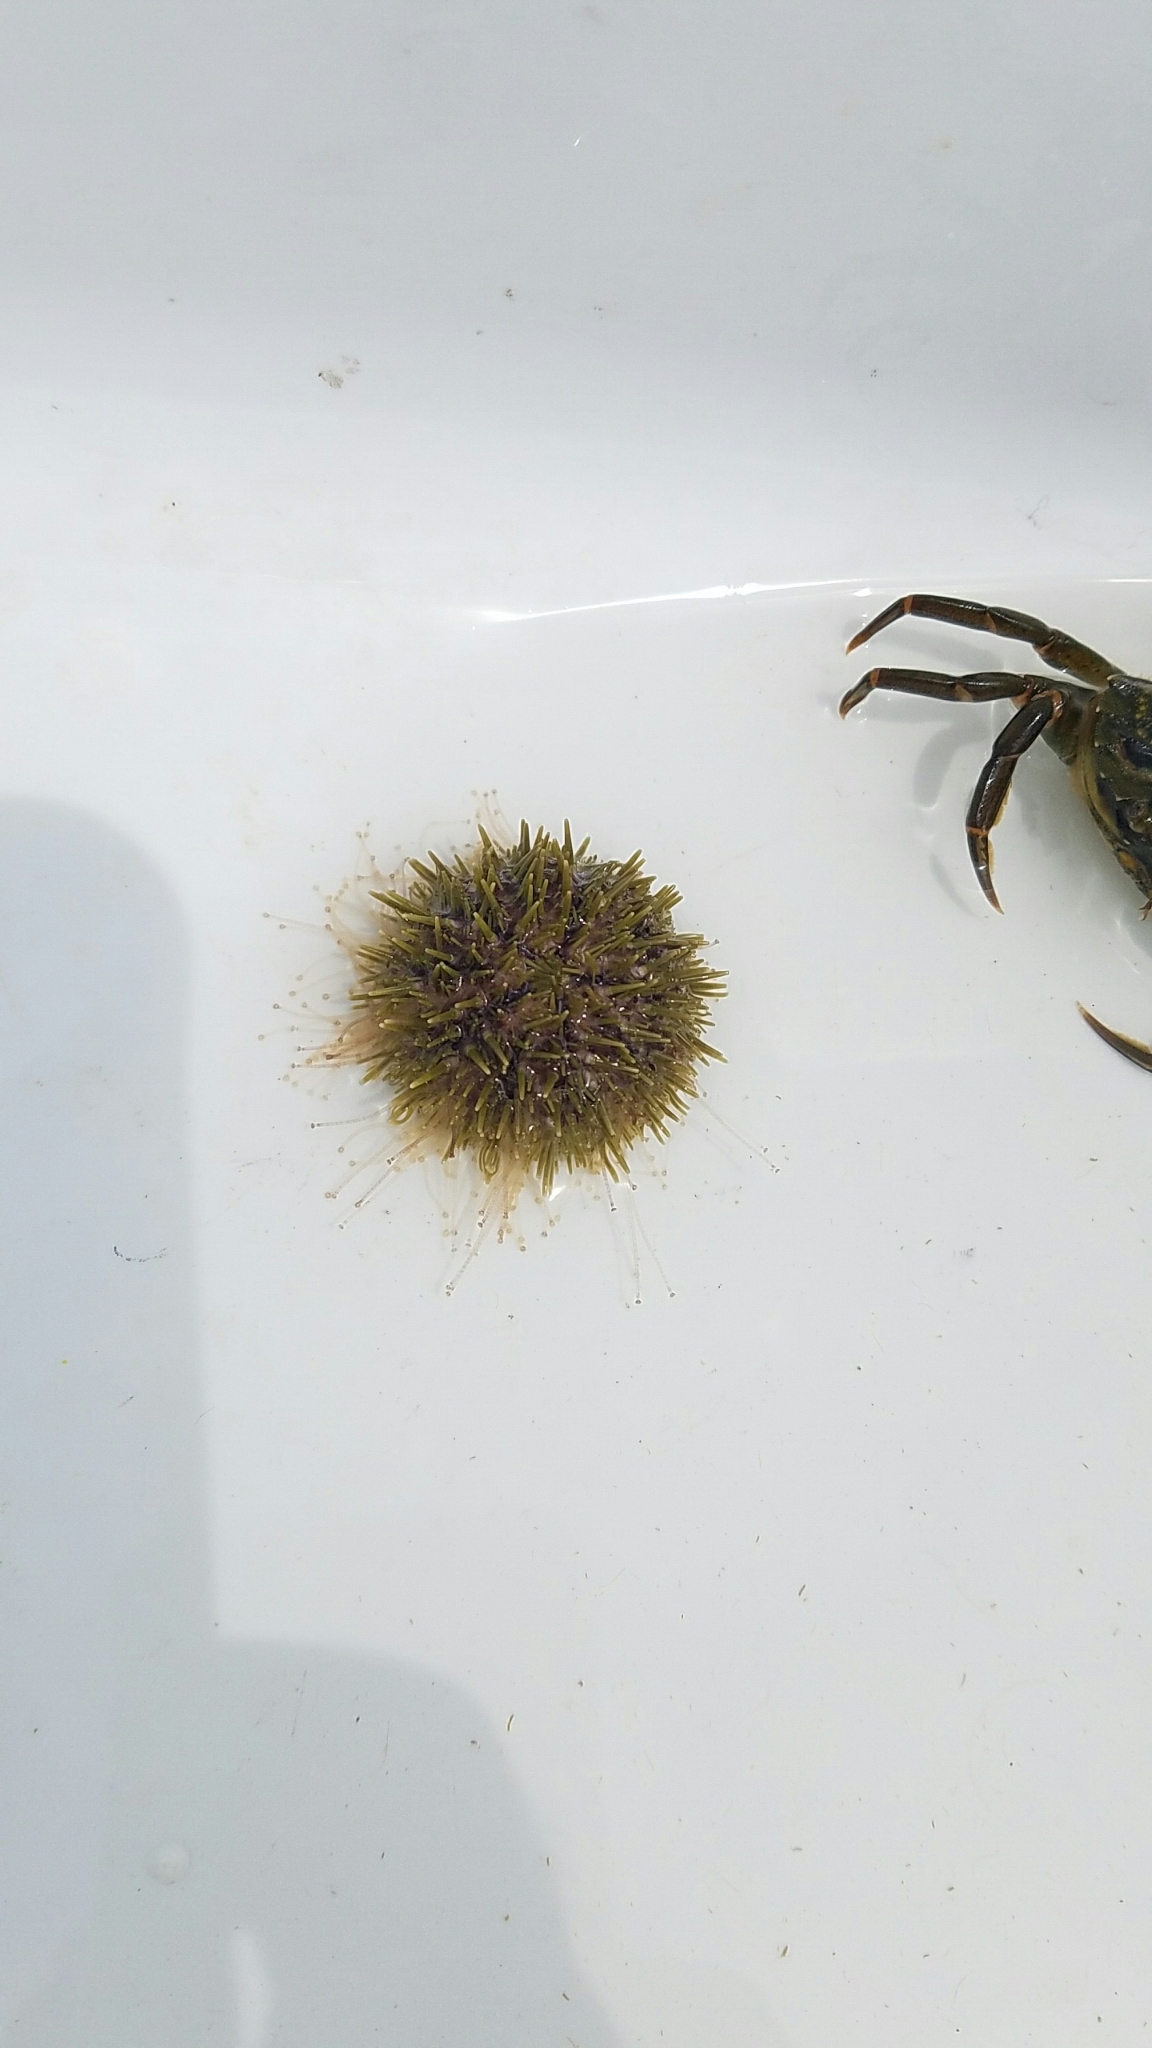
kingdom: Animalia
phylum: Echinodermata
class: Echinoidea
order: Camarodonta
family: Strongylocentrotidae
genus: Strongylocentrotus
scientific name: Strongylocentrotus droebachiensis
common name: Northern sea urchin
